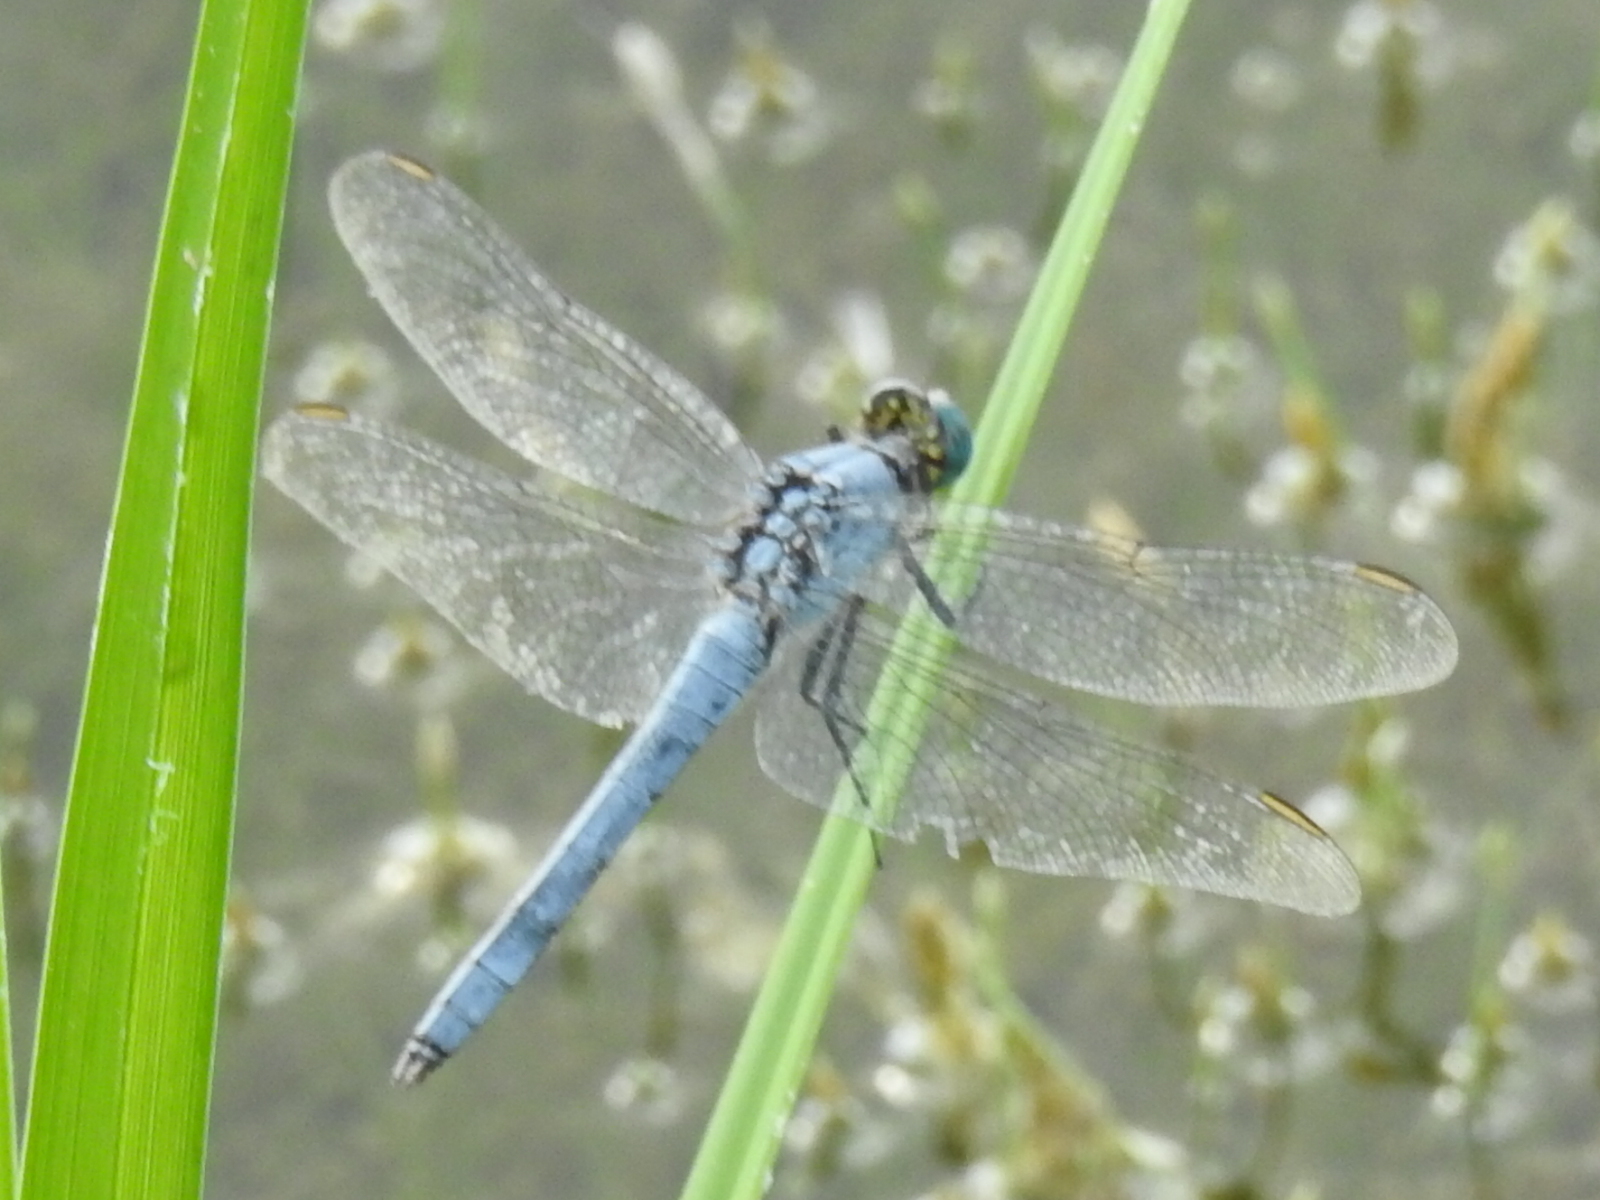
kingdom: Animalia
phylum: Arthropoda
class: Insecta
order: Odonata
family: Libellulidae
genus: Erythemis
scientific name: Erythemis collocata
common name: Western pondhawk
